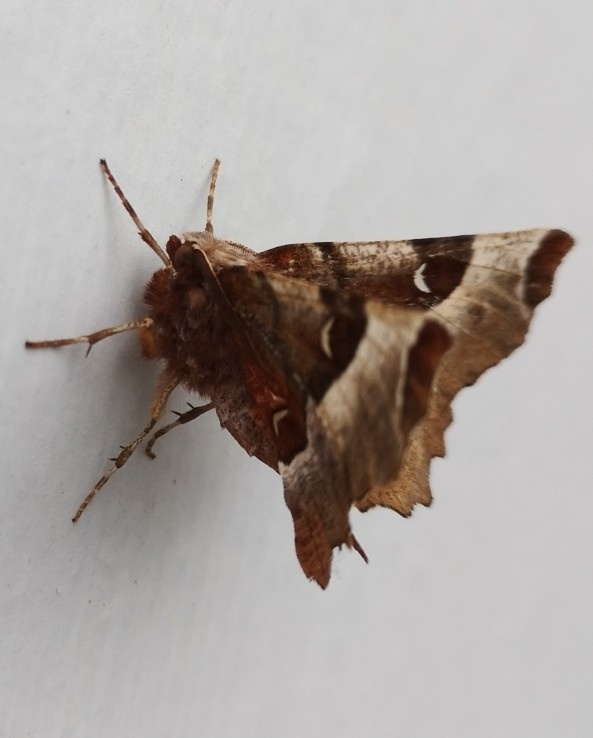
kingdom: Animalia
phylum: Arthropoda
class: Insecta
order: Lepidoptera
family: Geometridae
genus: Selenia
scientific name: Selenia tetralunaria
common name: Purple thorn
